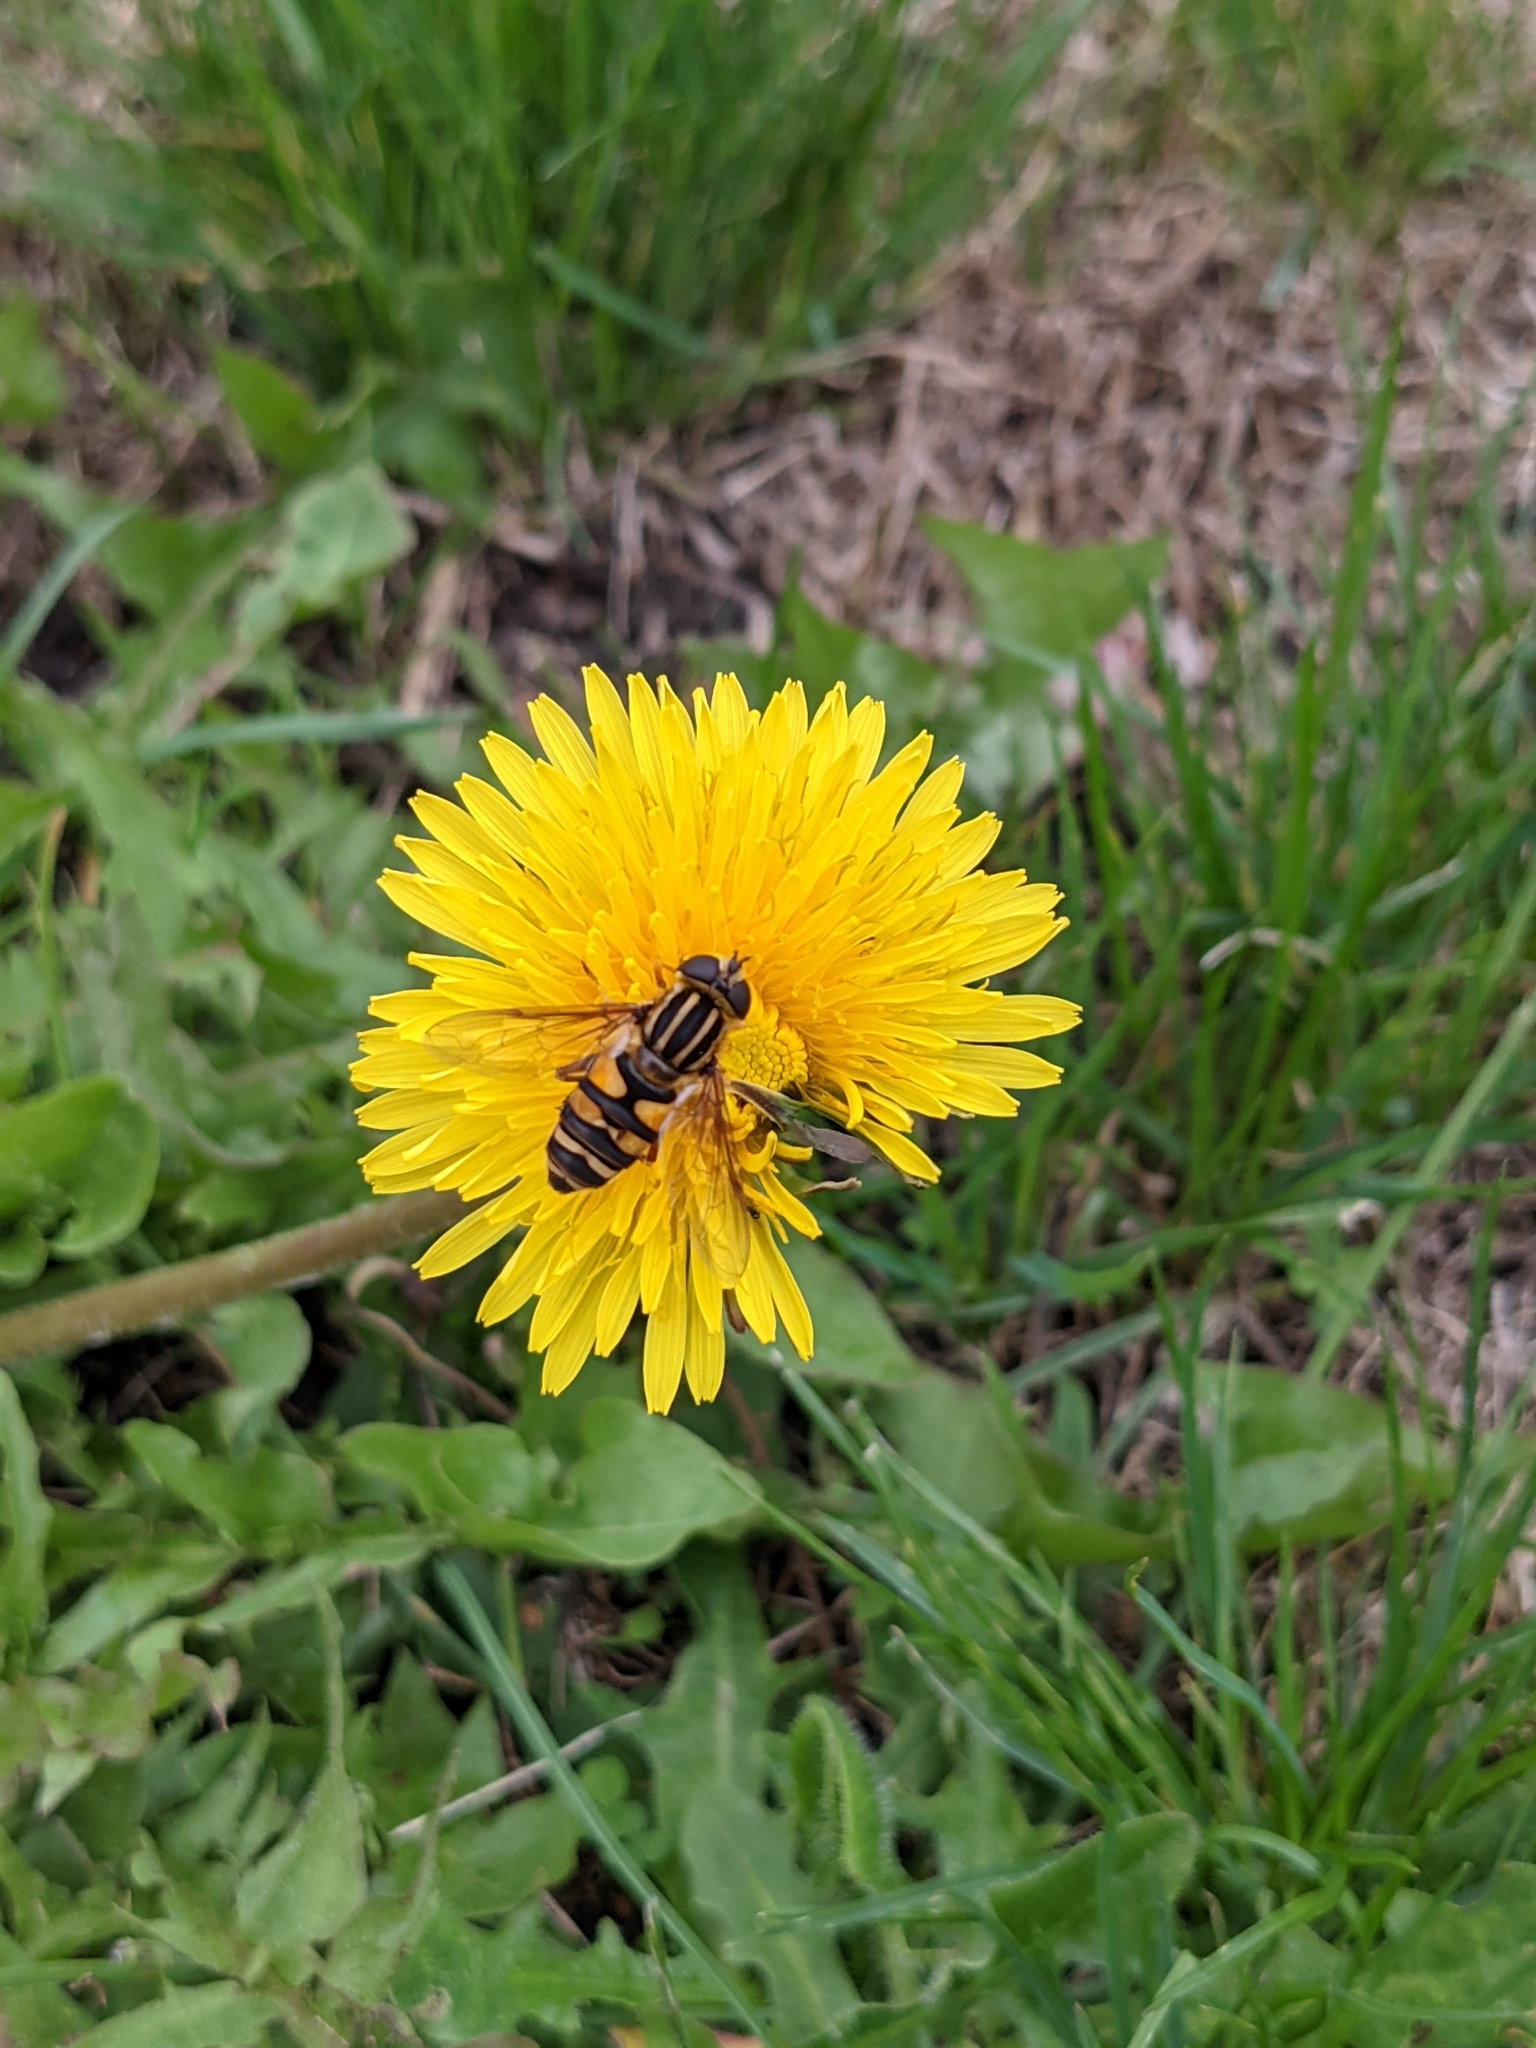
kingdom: Animalia
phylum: Arthropoda
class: Insecta
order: Diptera
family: Syrphidae
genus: Helophilus
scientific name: Helophilus fasciatus
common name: Narrow-headed marsh fly
